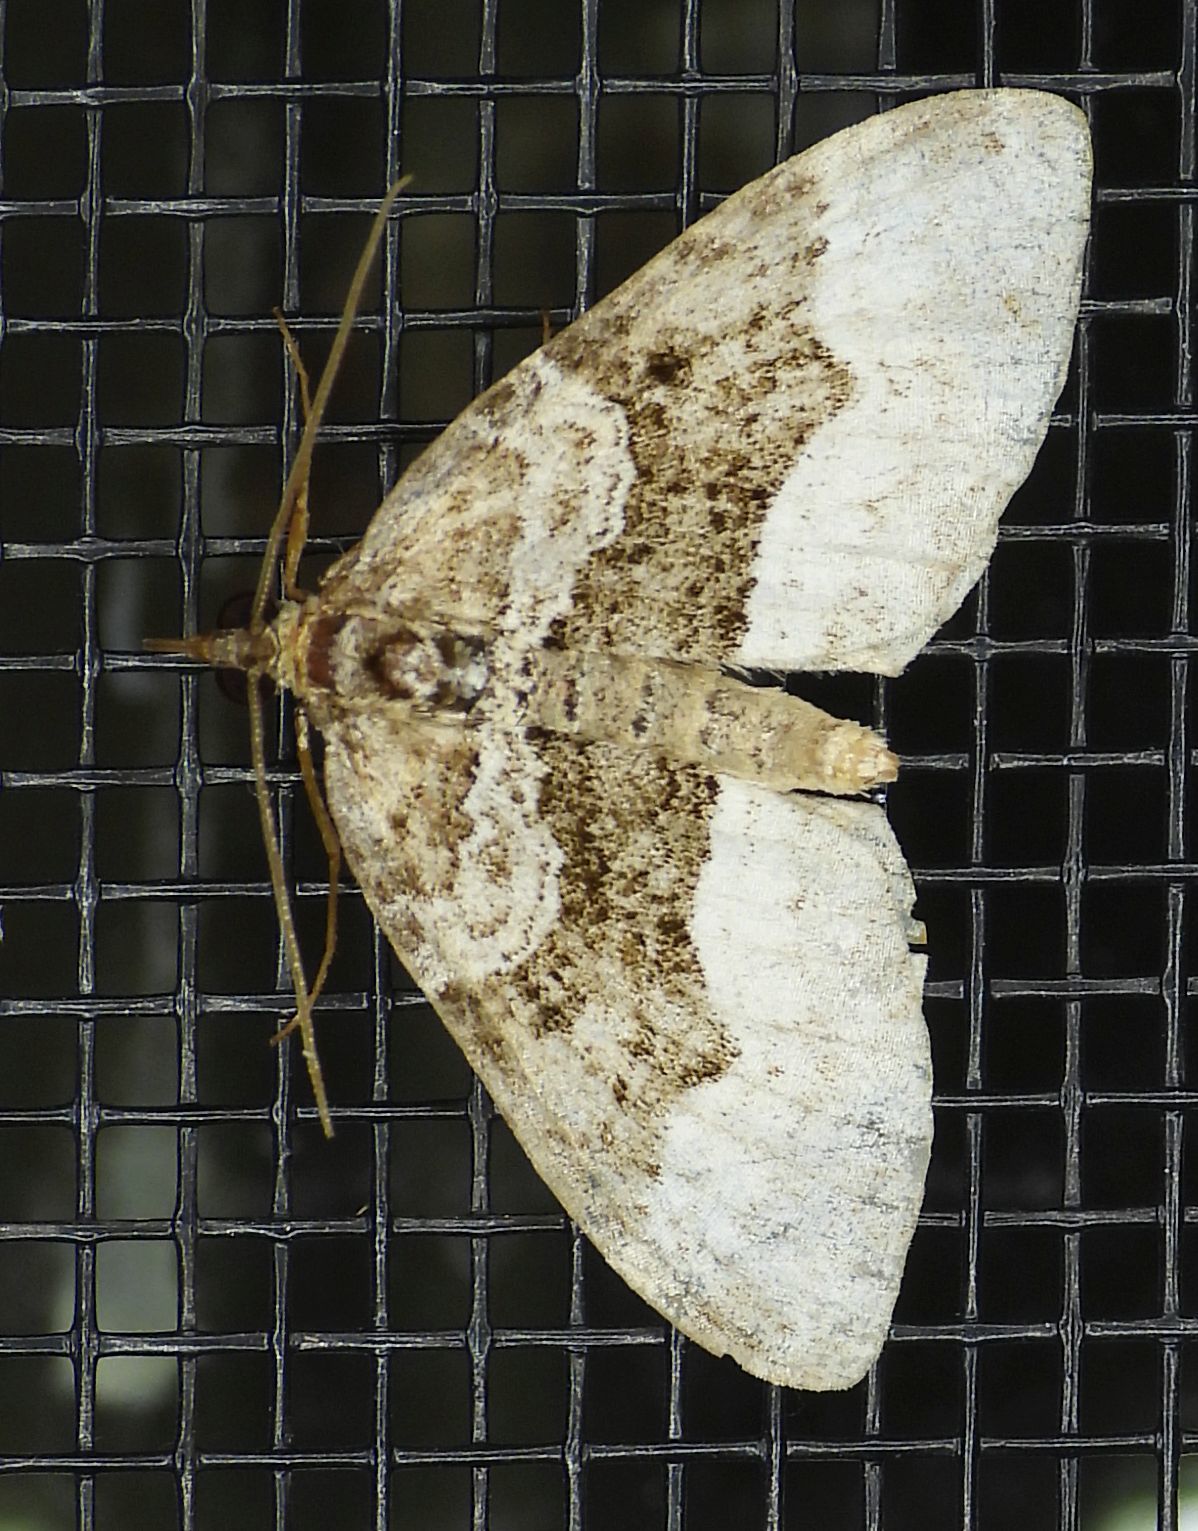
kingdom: Animalia
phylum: Arthropoda
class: Insecta
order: Lepidoptera
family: Geometridae
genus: Euphyia
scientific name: Euphyia intermediata
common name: Sharp-angled carpet
